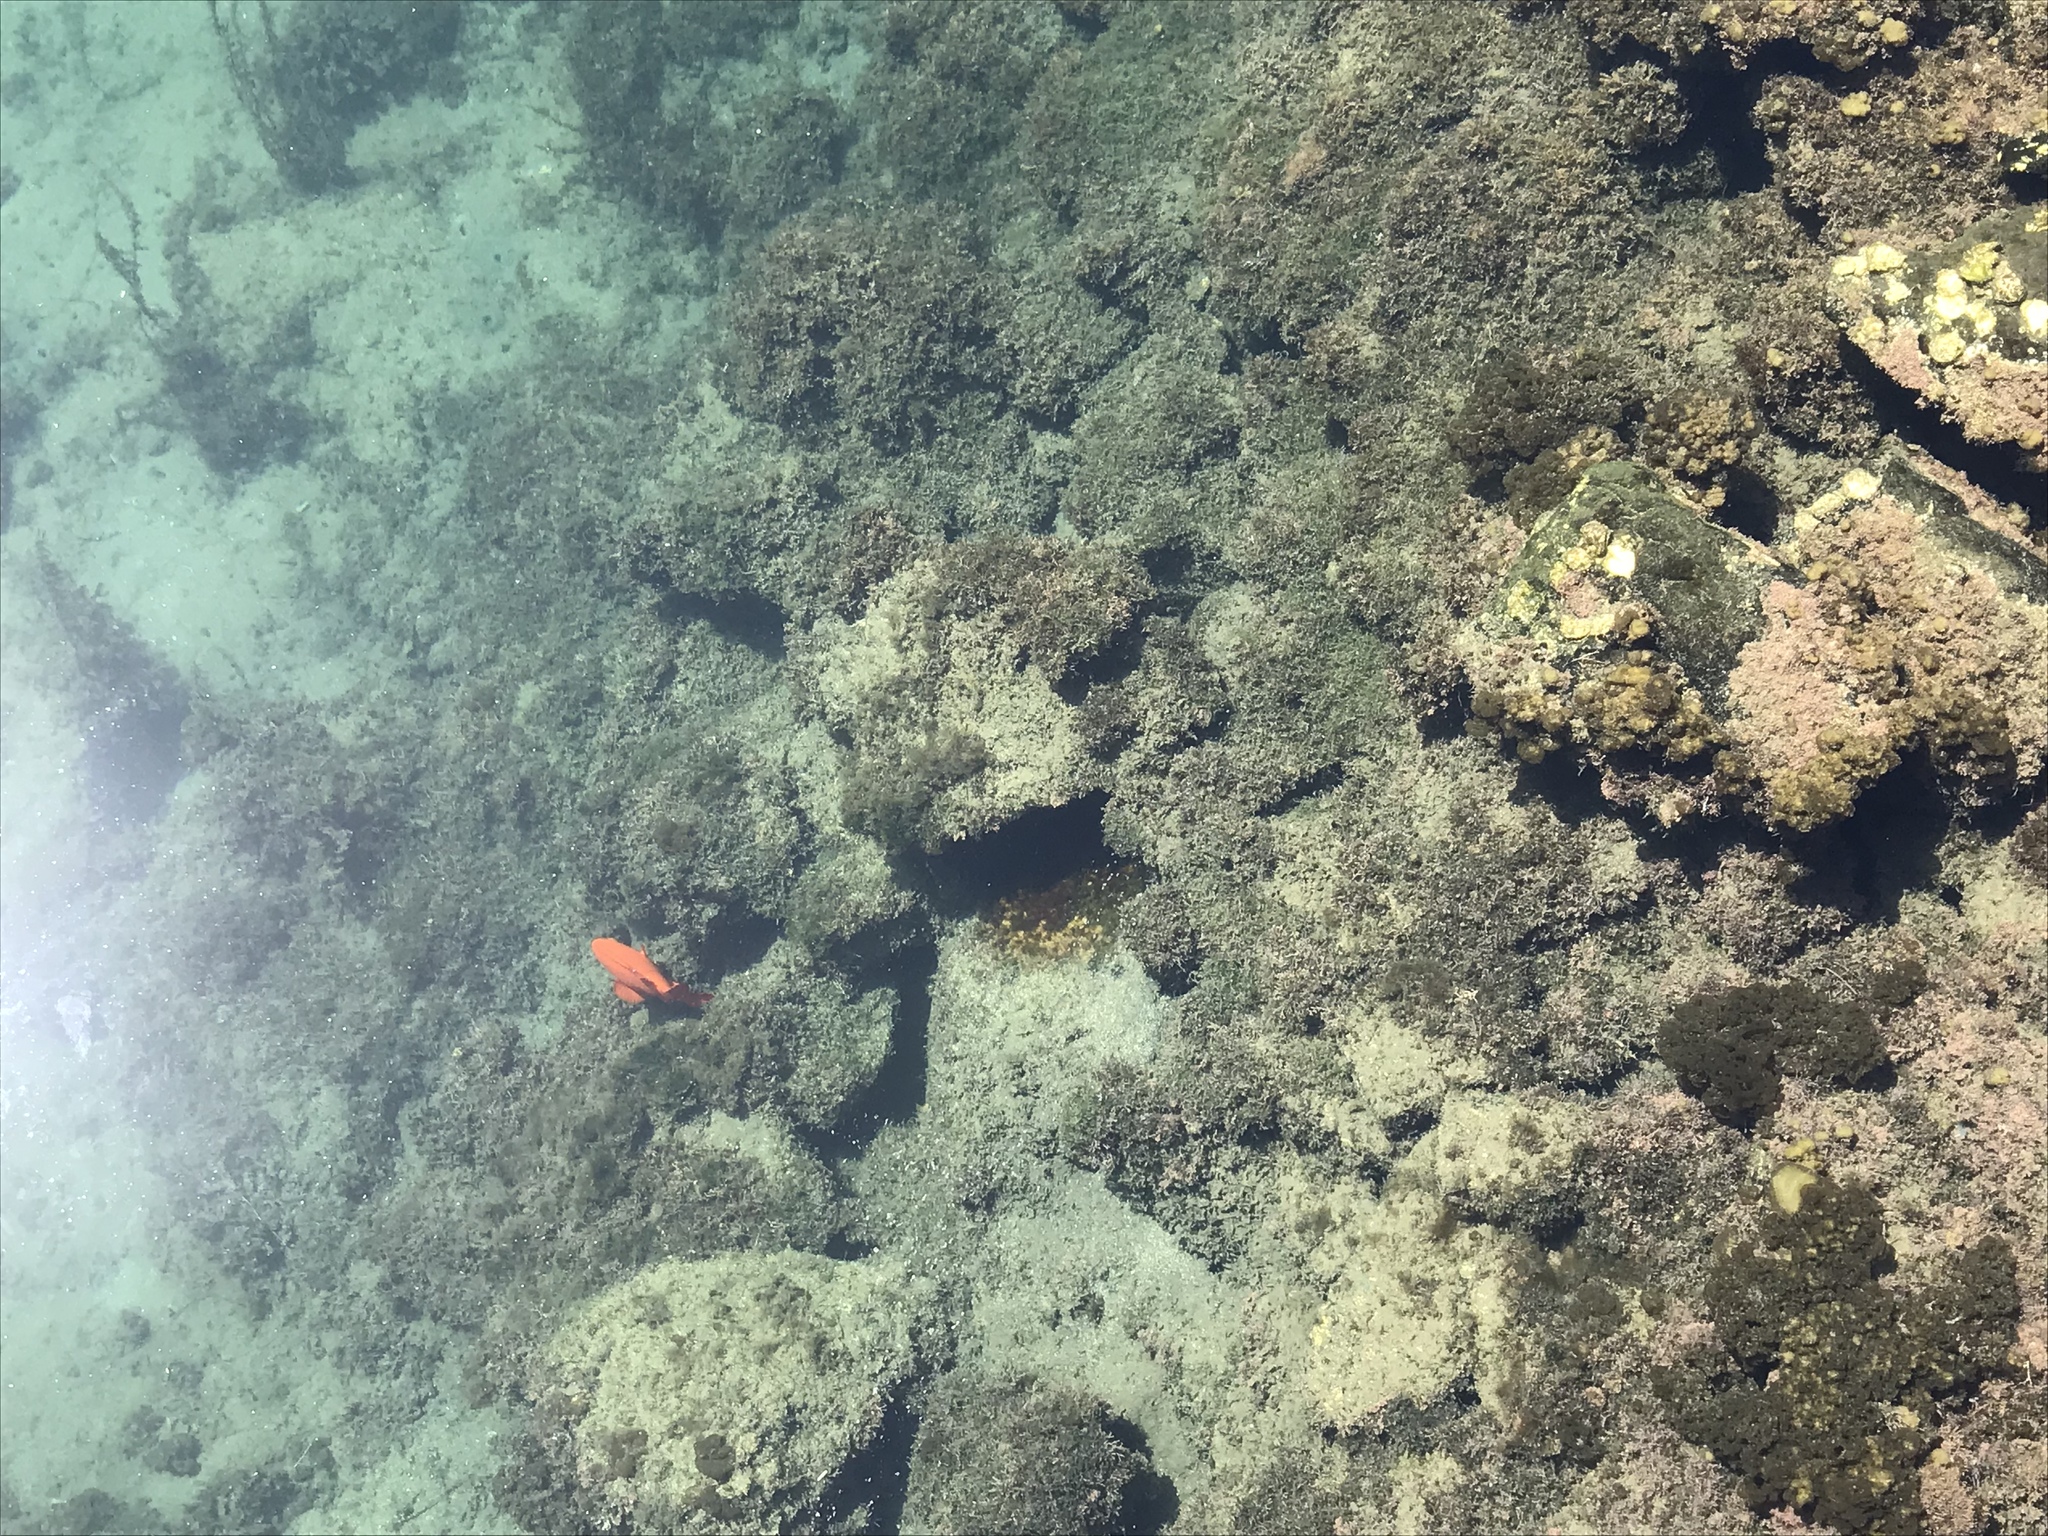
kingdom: Animalia
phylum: Chordata
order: Perciformes
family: Pomacentridae
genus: Hypsypops
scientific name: Hypsypops rubicundus
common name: Garibaldi
